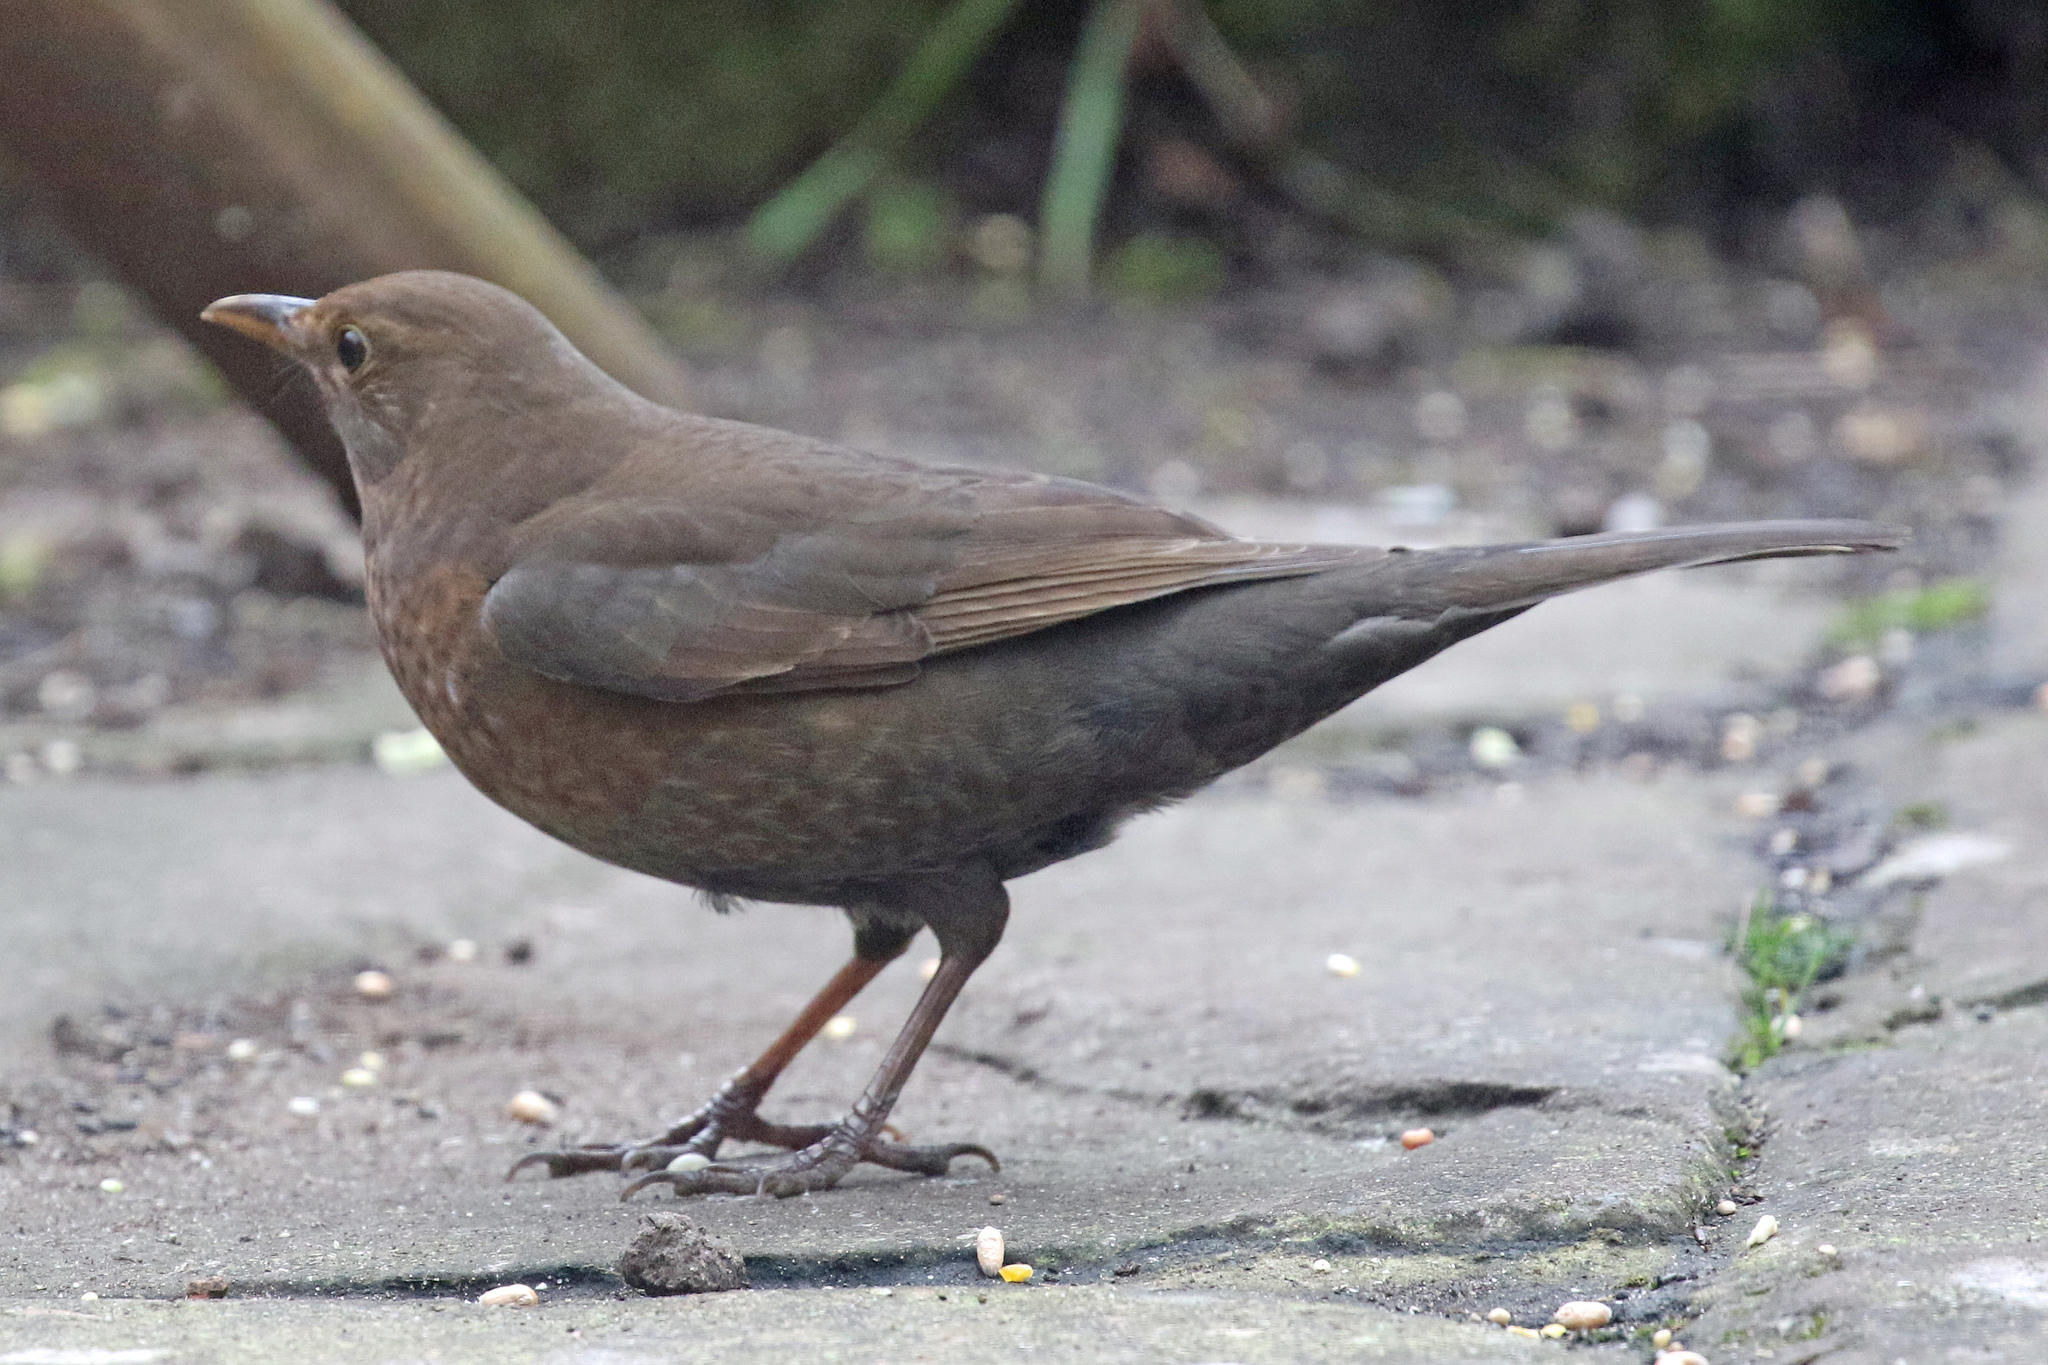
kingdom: Animalia
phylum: Chordata
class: Aves
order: Passeriformes
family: Turdidae
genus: Turdus
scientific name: Turdus merula
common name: Common blackbird
